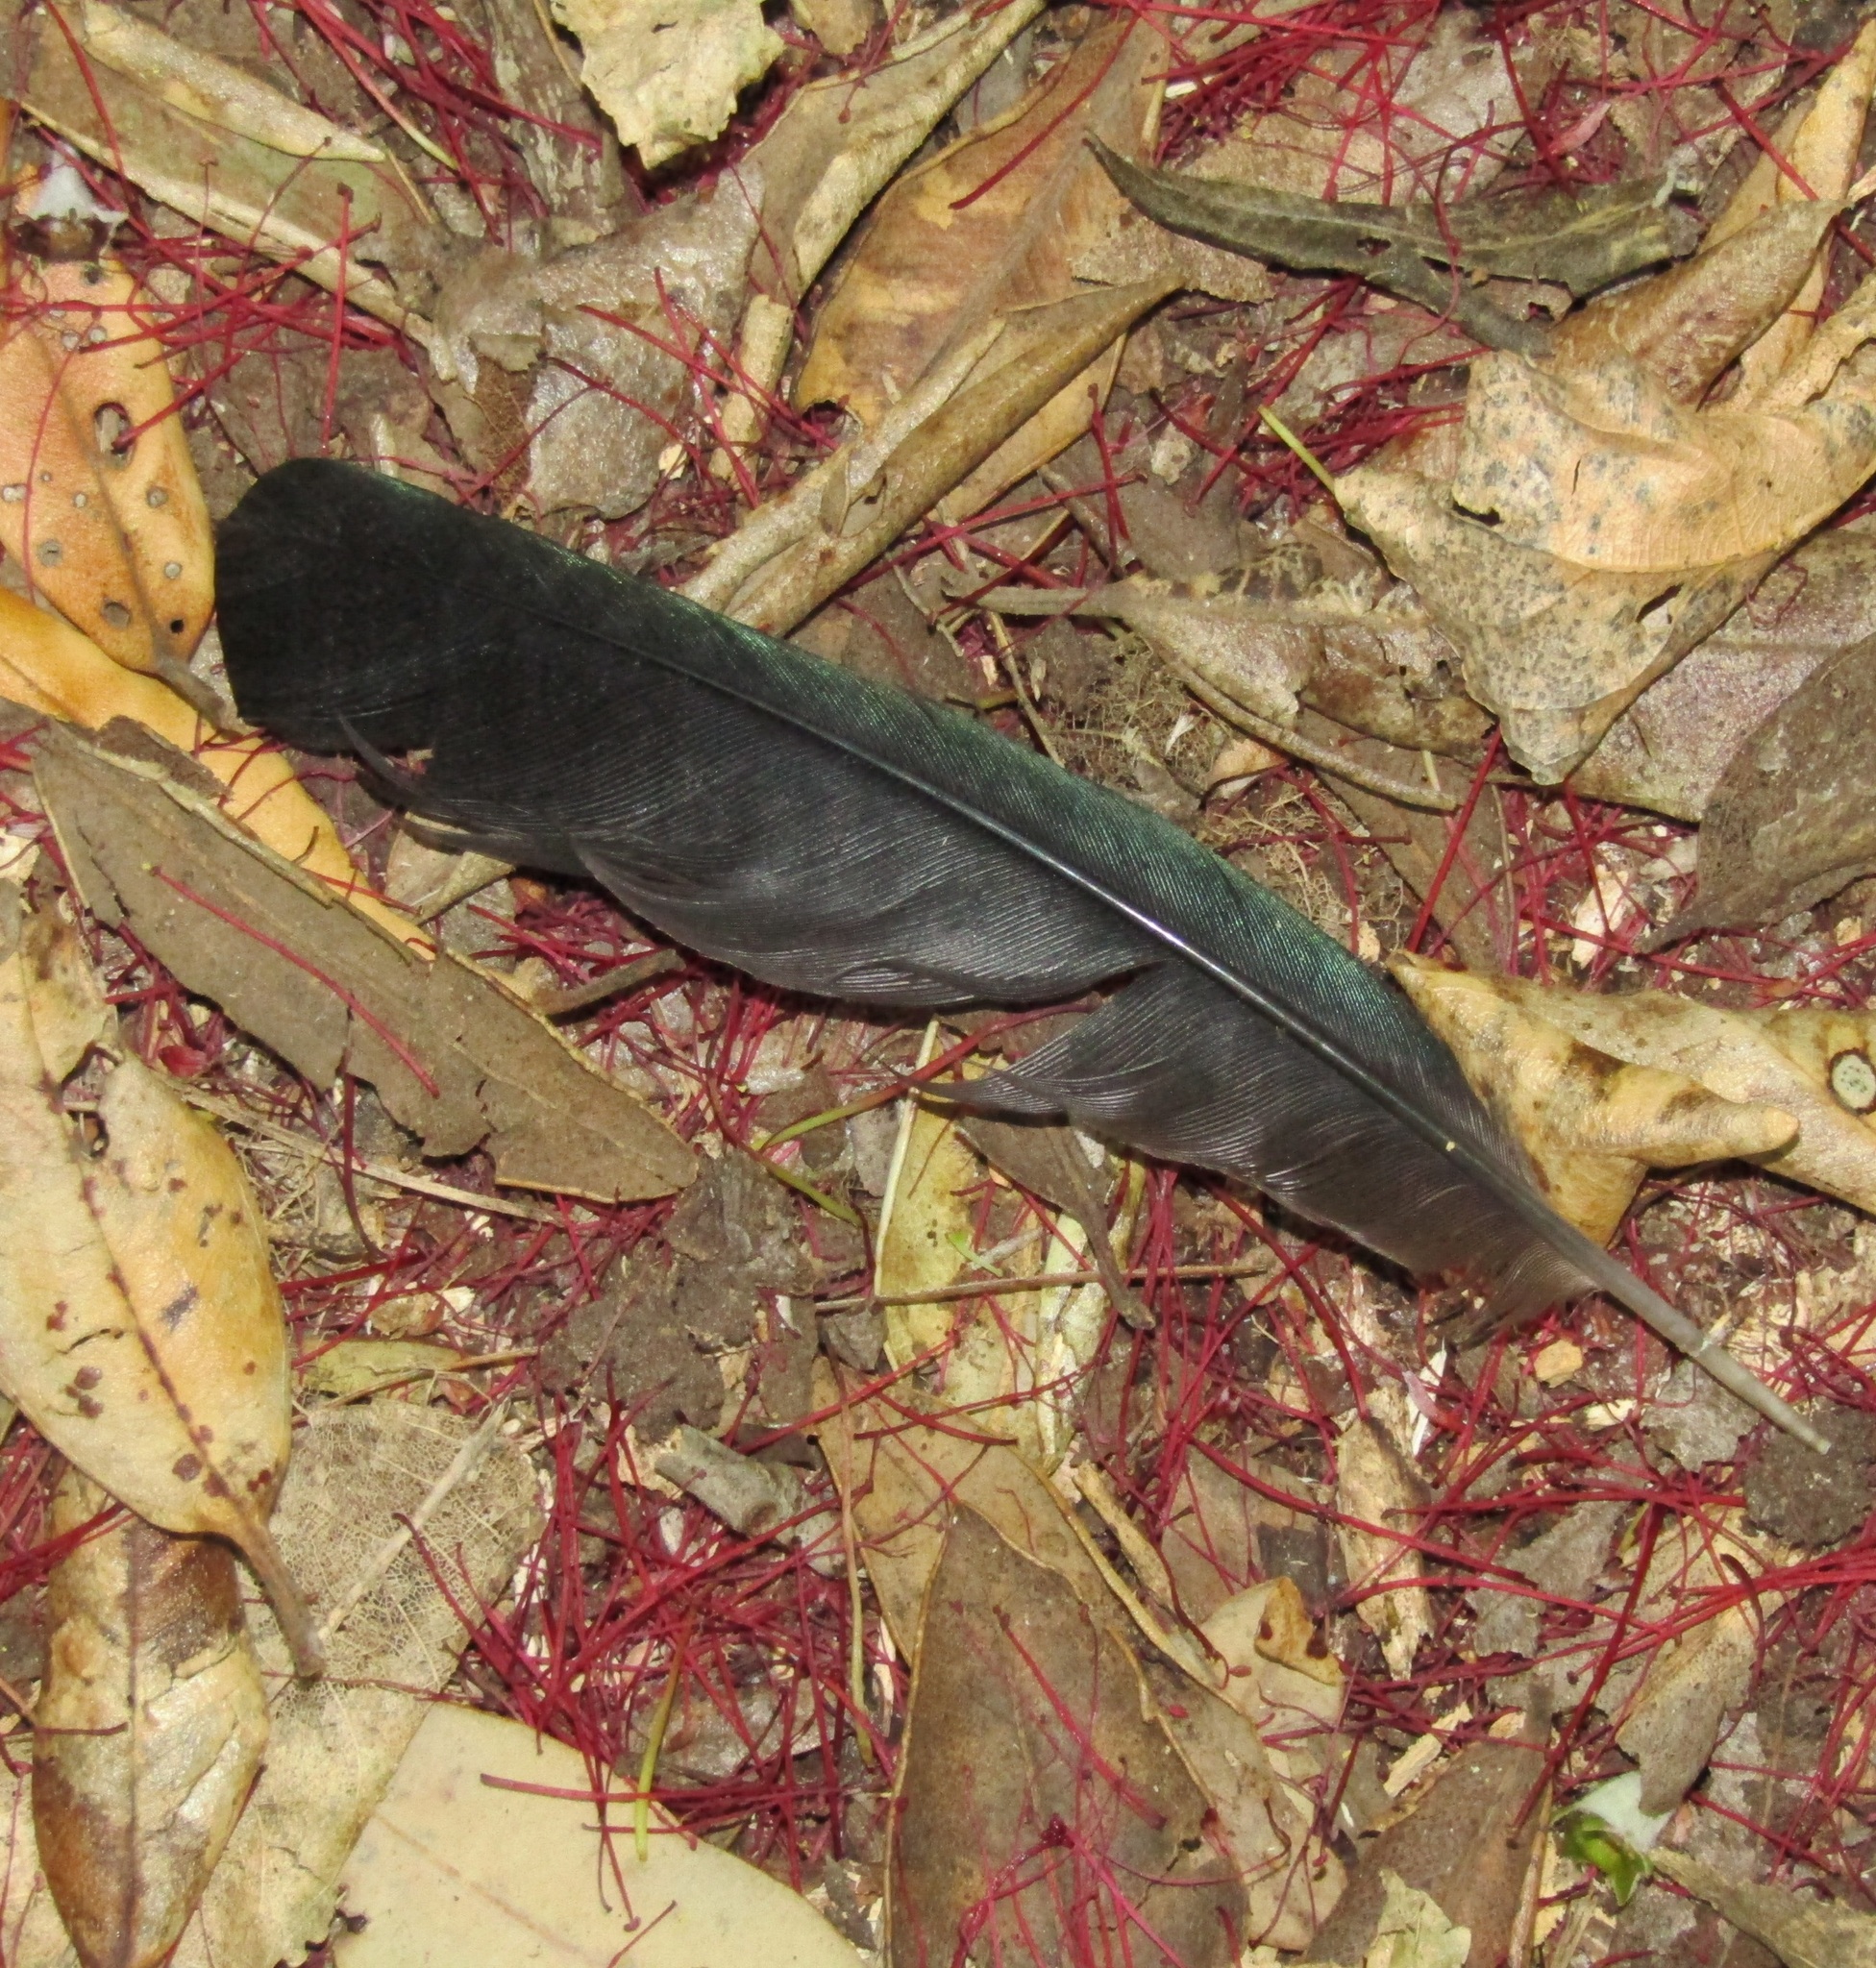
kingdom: Animalia
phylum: Chordata
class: Aves
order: Passeriformes
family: Meliphagidae
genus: Prosthemadera
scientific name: Prosthemadera novaeseelandiae
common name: Tui
